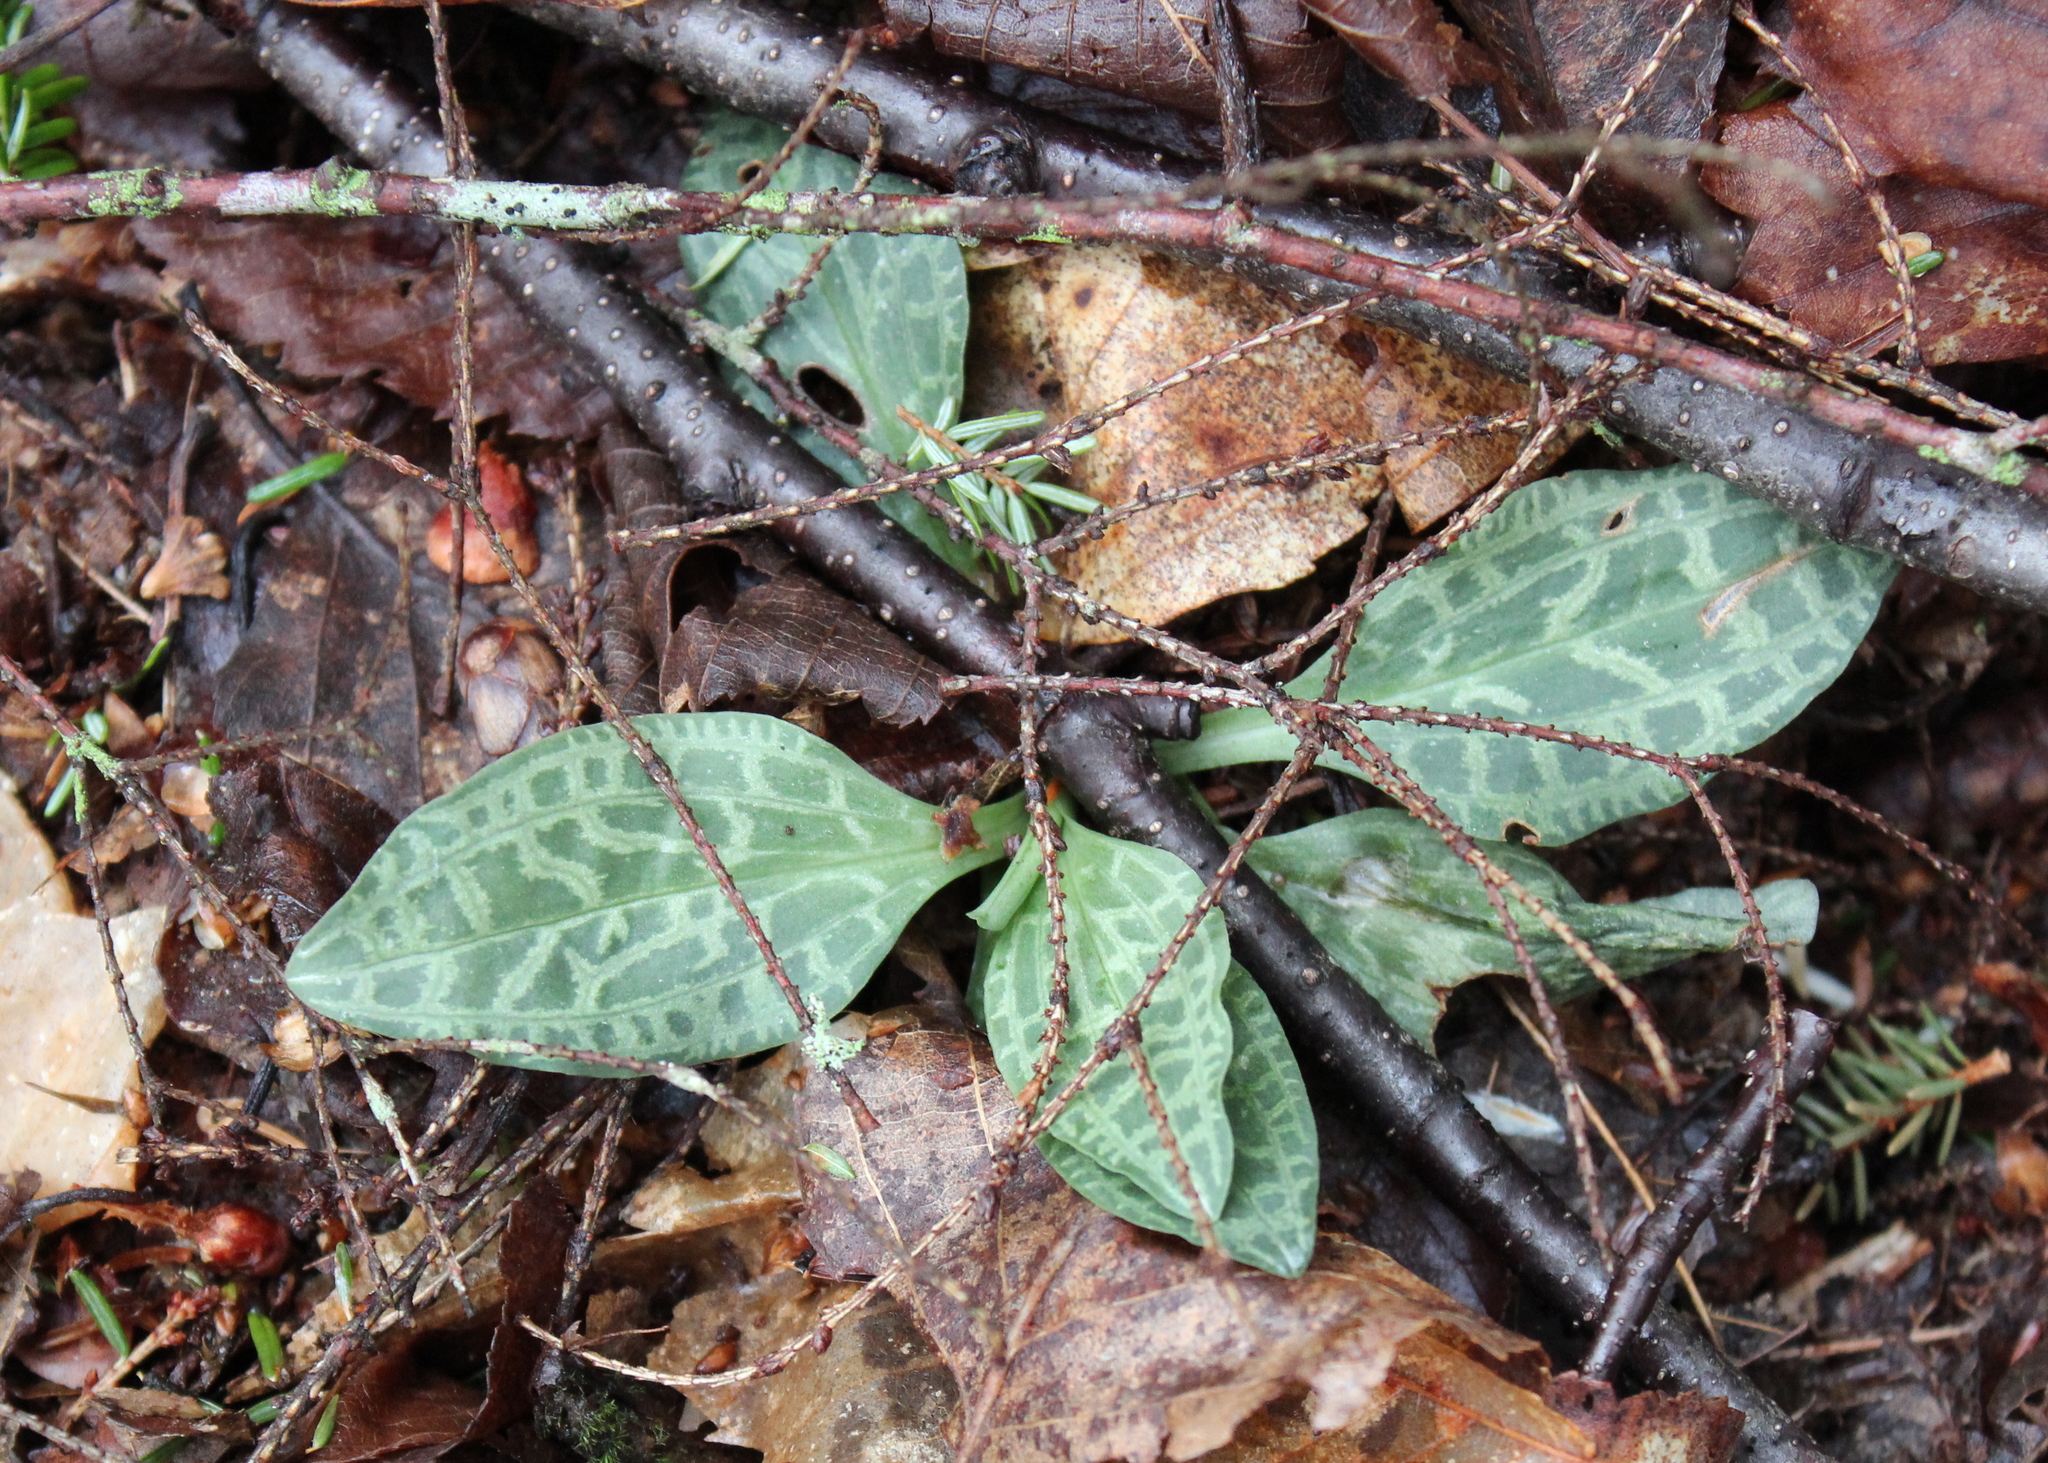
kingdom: Plantae
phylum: Tracheophyta
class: Liliopsida
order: Asparagales
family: Orchidaceae
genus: Goodyera
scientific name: Goodyera tesselata
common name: Checkered rattlesnake-plantain
